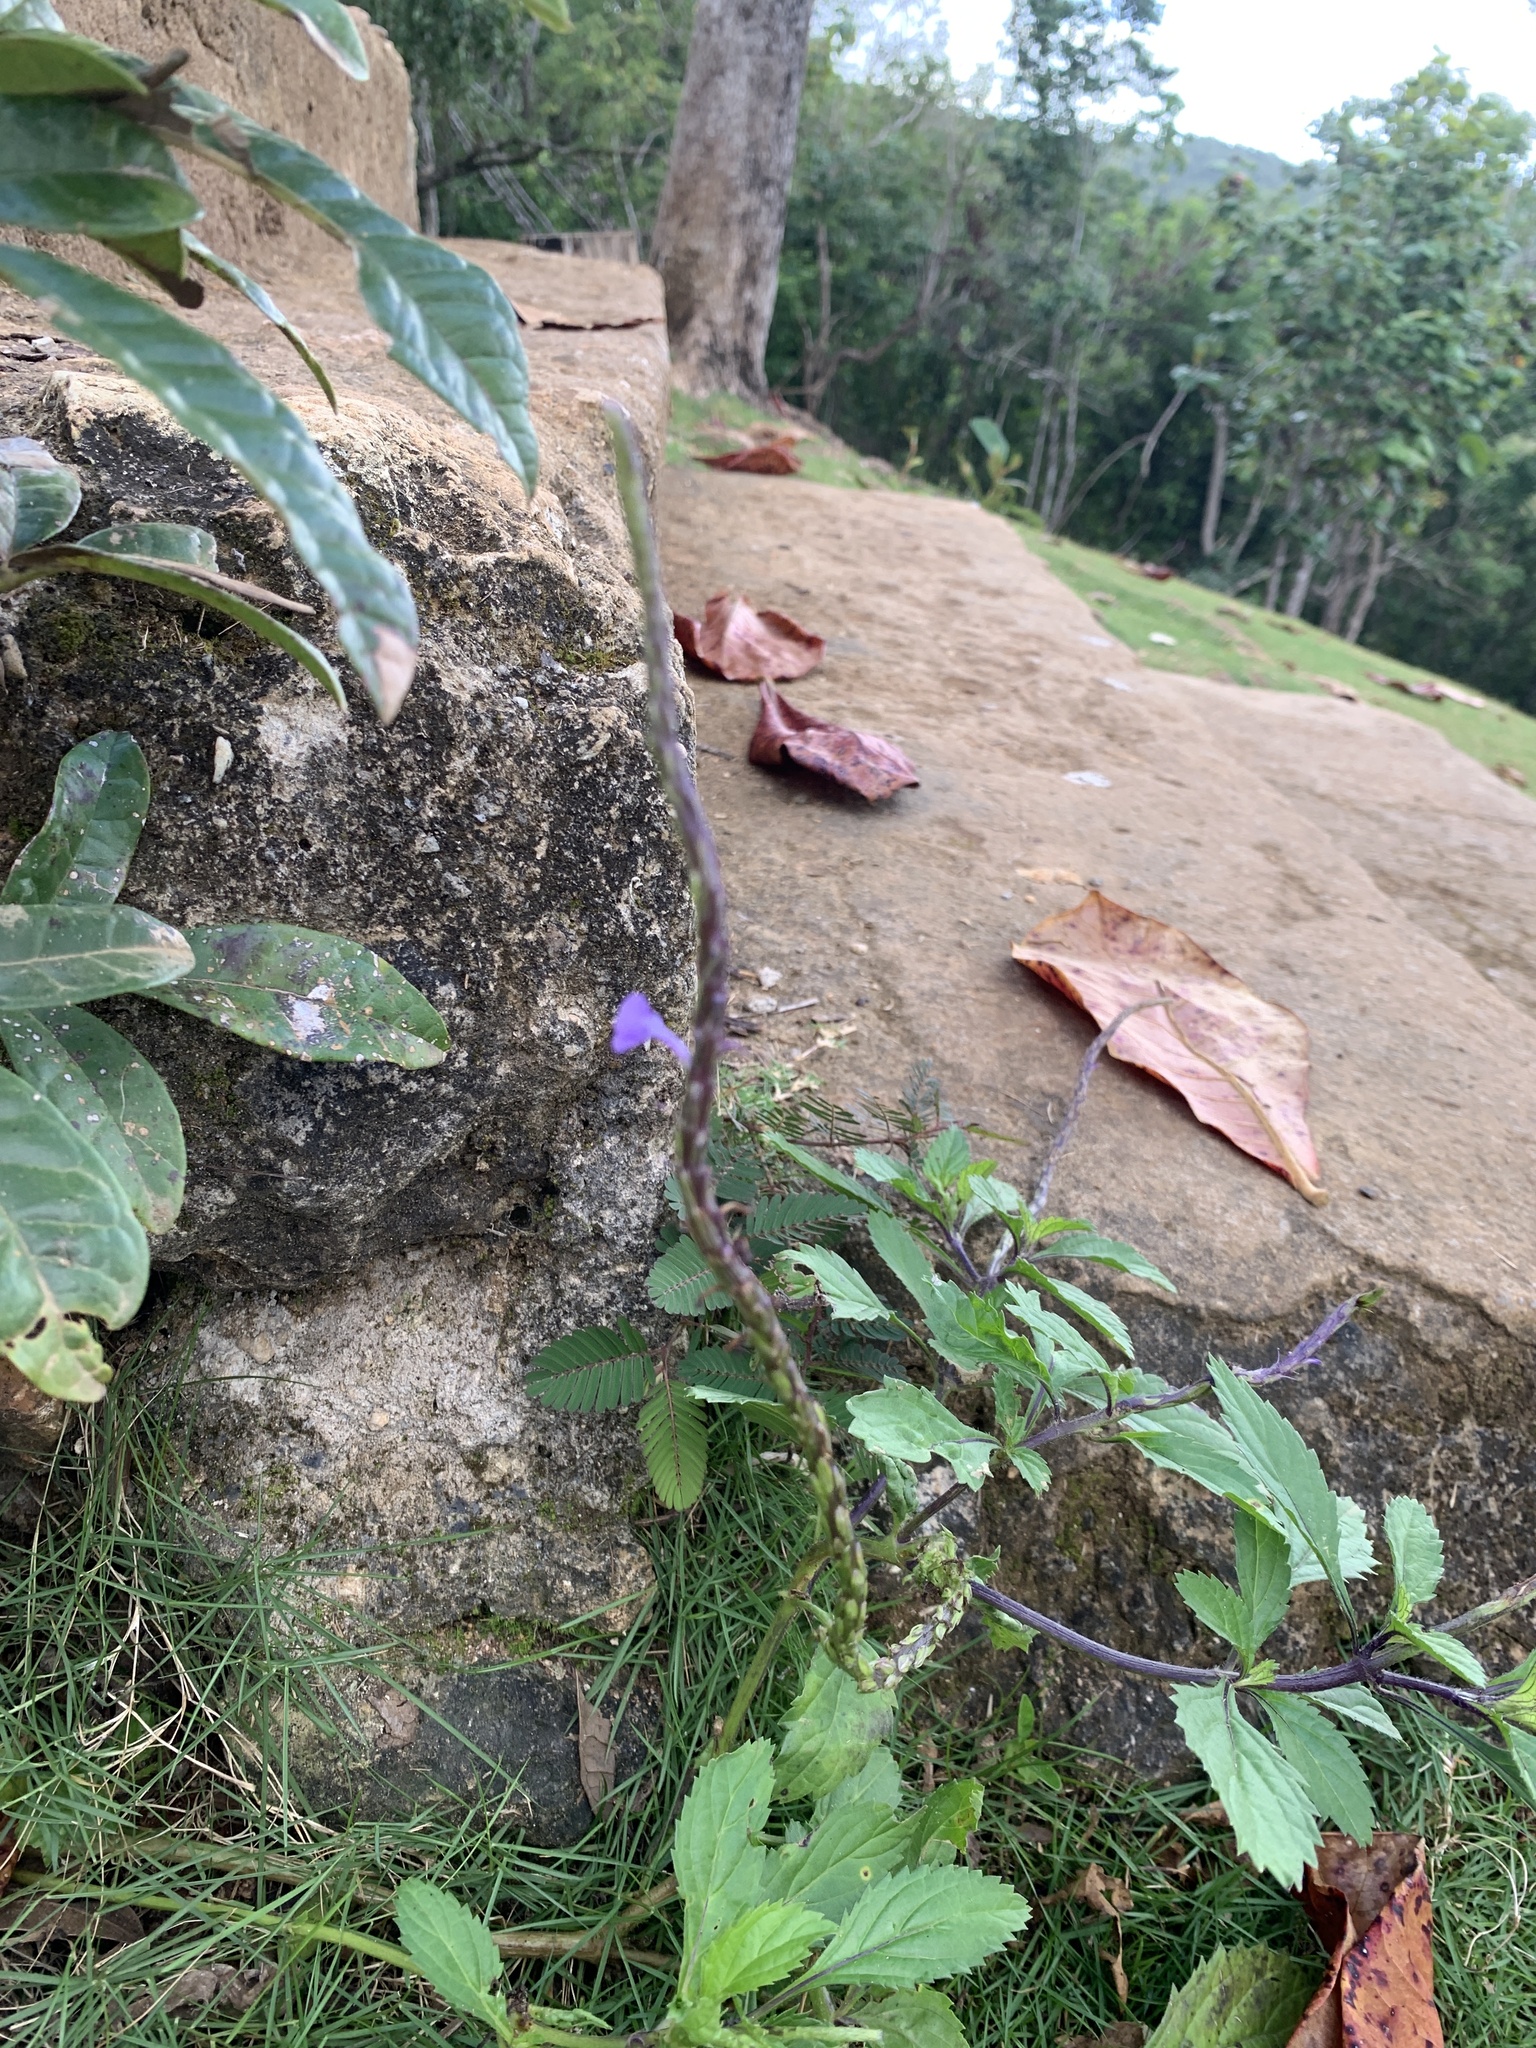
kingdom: Plantae
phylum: Tracheophyta
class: Magnoliopsida
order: Lamiales
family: Verbenaceae
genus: Stachytarpheta
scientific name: Stachytarpheta jamaicensis
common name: Light-blue snakeweed
